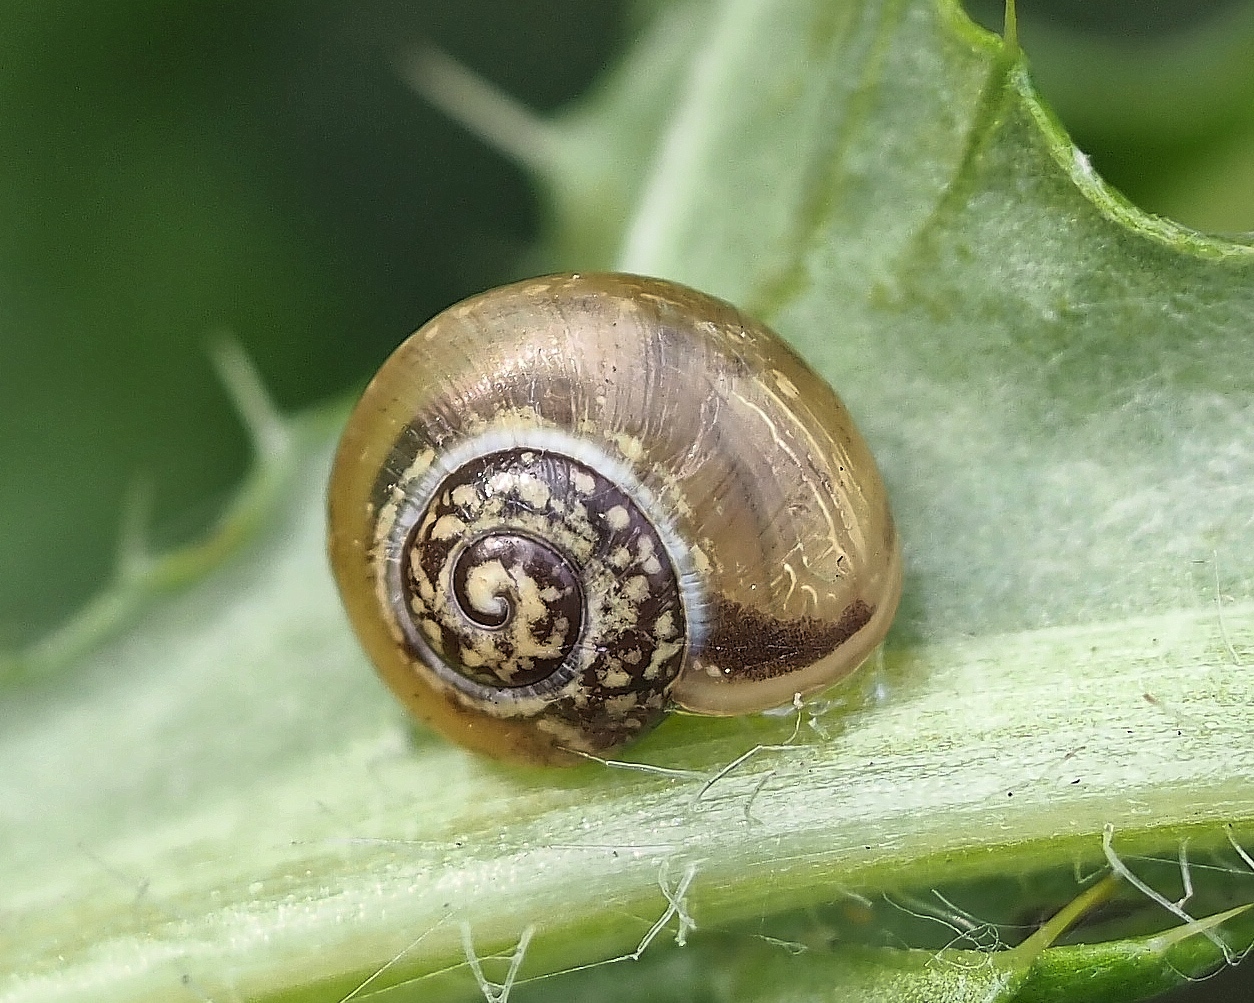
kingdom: Animalia
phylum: Mollusca
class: Gastropoda
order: Stylommatophora
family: Hygromiidae
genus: Monacha
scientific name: Monacha cantiana
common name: Kentish snail
